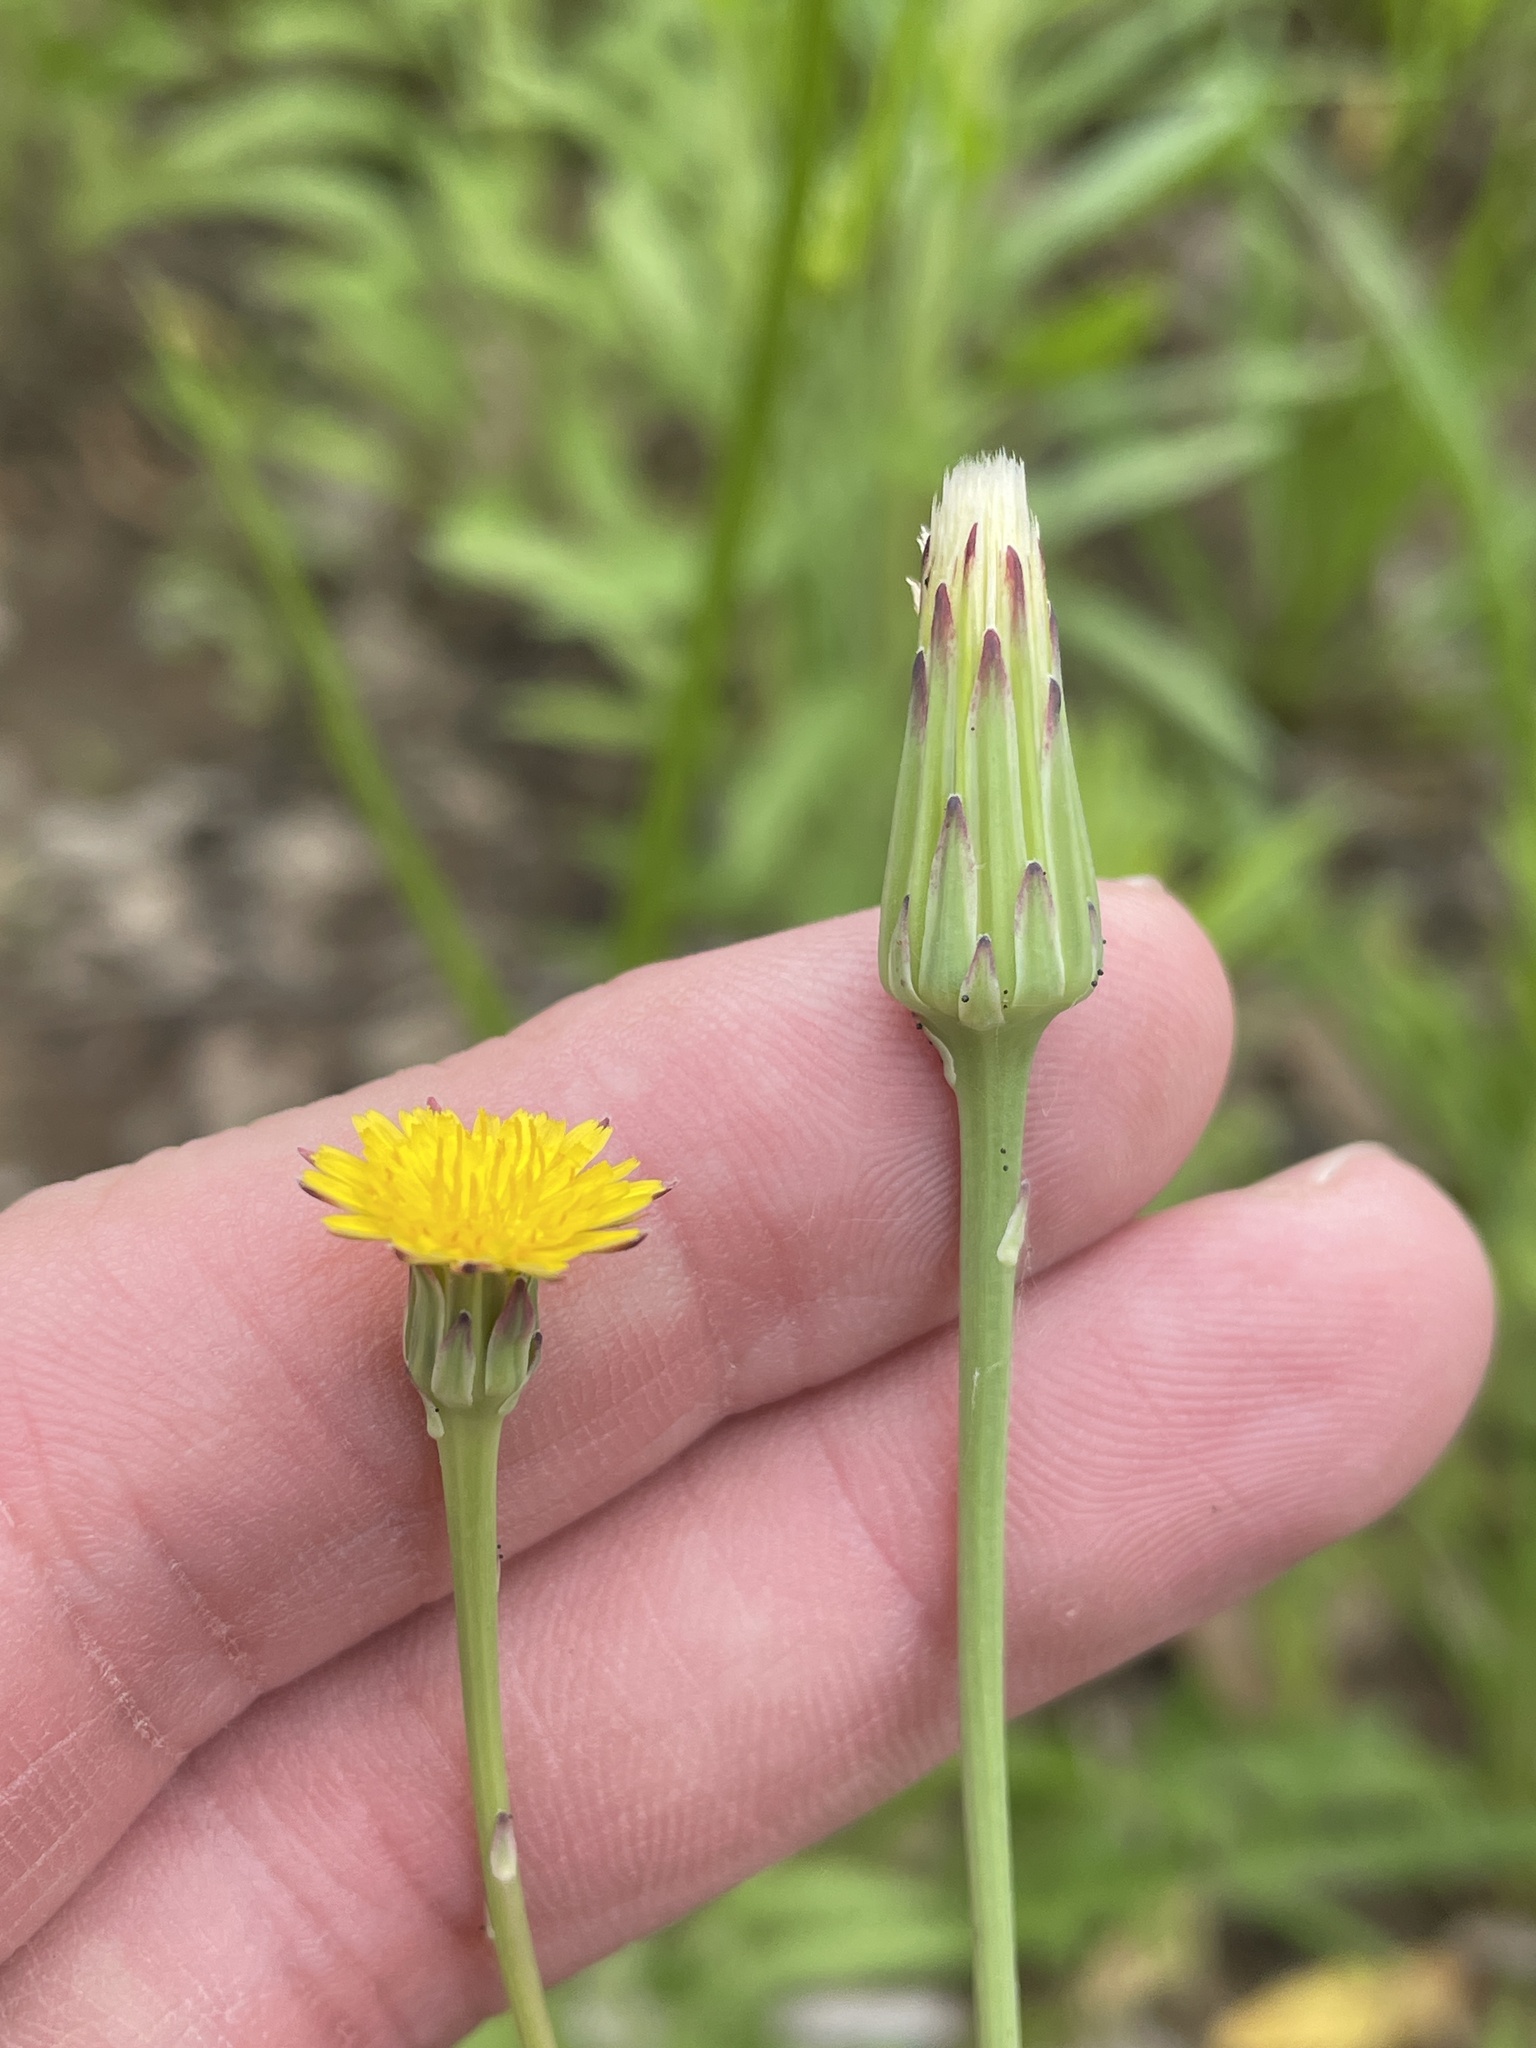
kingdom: Plantae
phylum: Tracheophyta
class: Magnoliopsida
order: Asterales
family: Asteraceae
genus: Hypochaeris
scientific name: Hypochaeris glabra
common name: Smooth catsear
